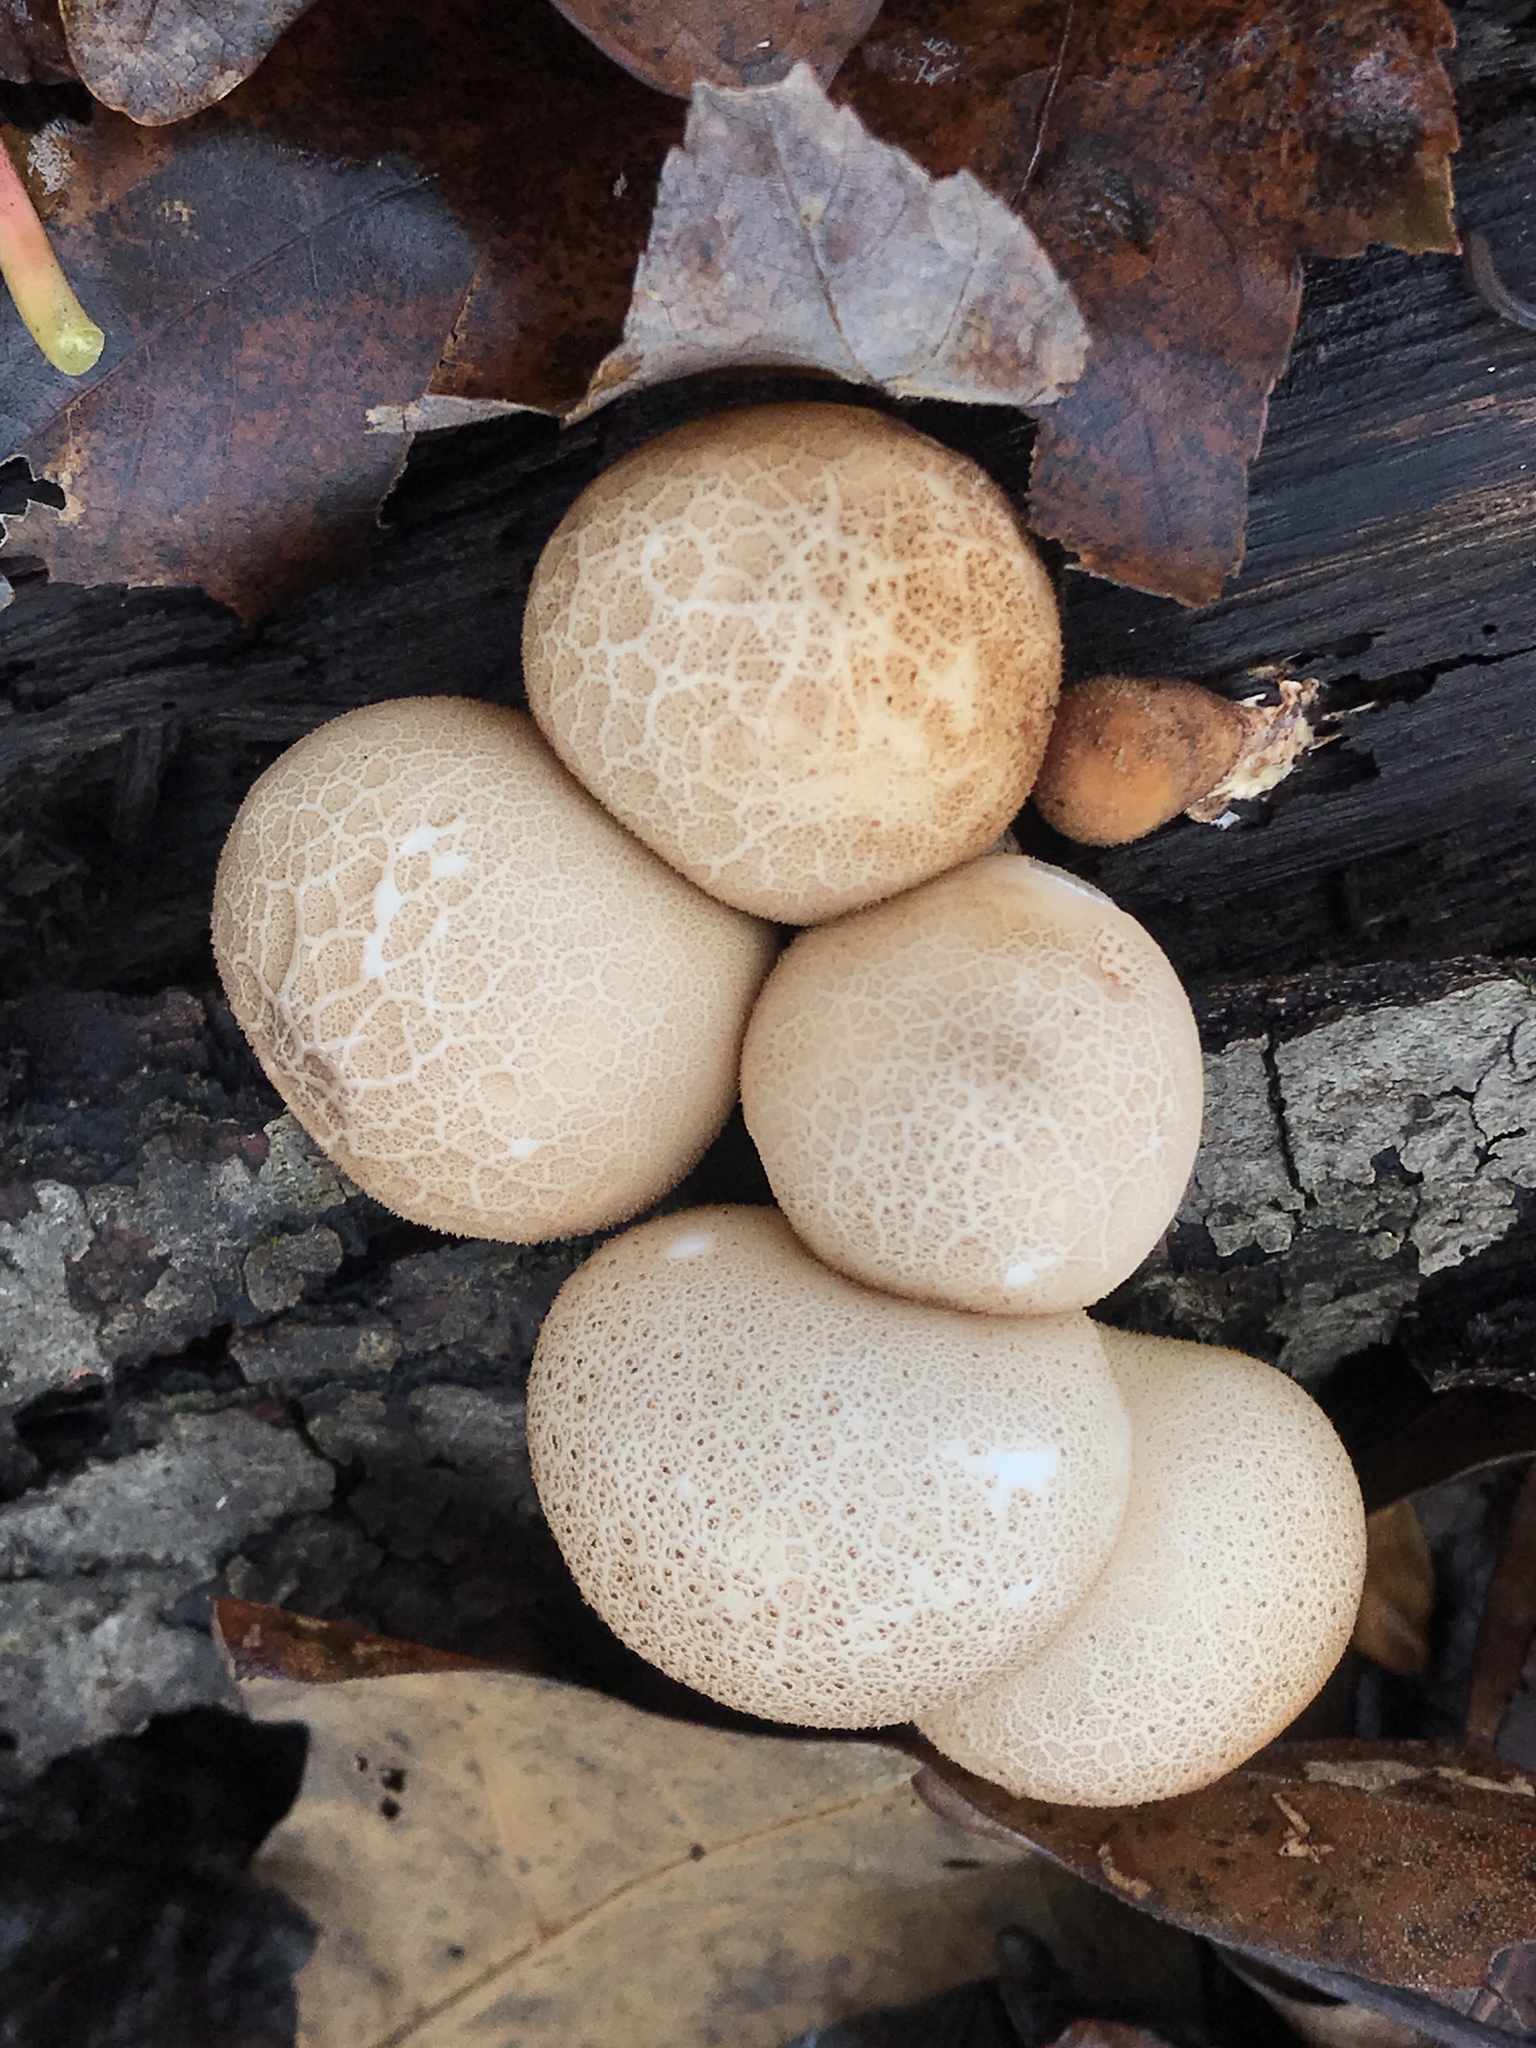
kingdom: Fungi
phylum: Basidiomycota
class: Agaricomycetes
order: Agaricales
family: Lycoperdaceae
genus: Apioperdon
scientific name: Apioperdon pyriforme
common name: Pear-shaped puffball
